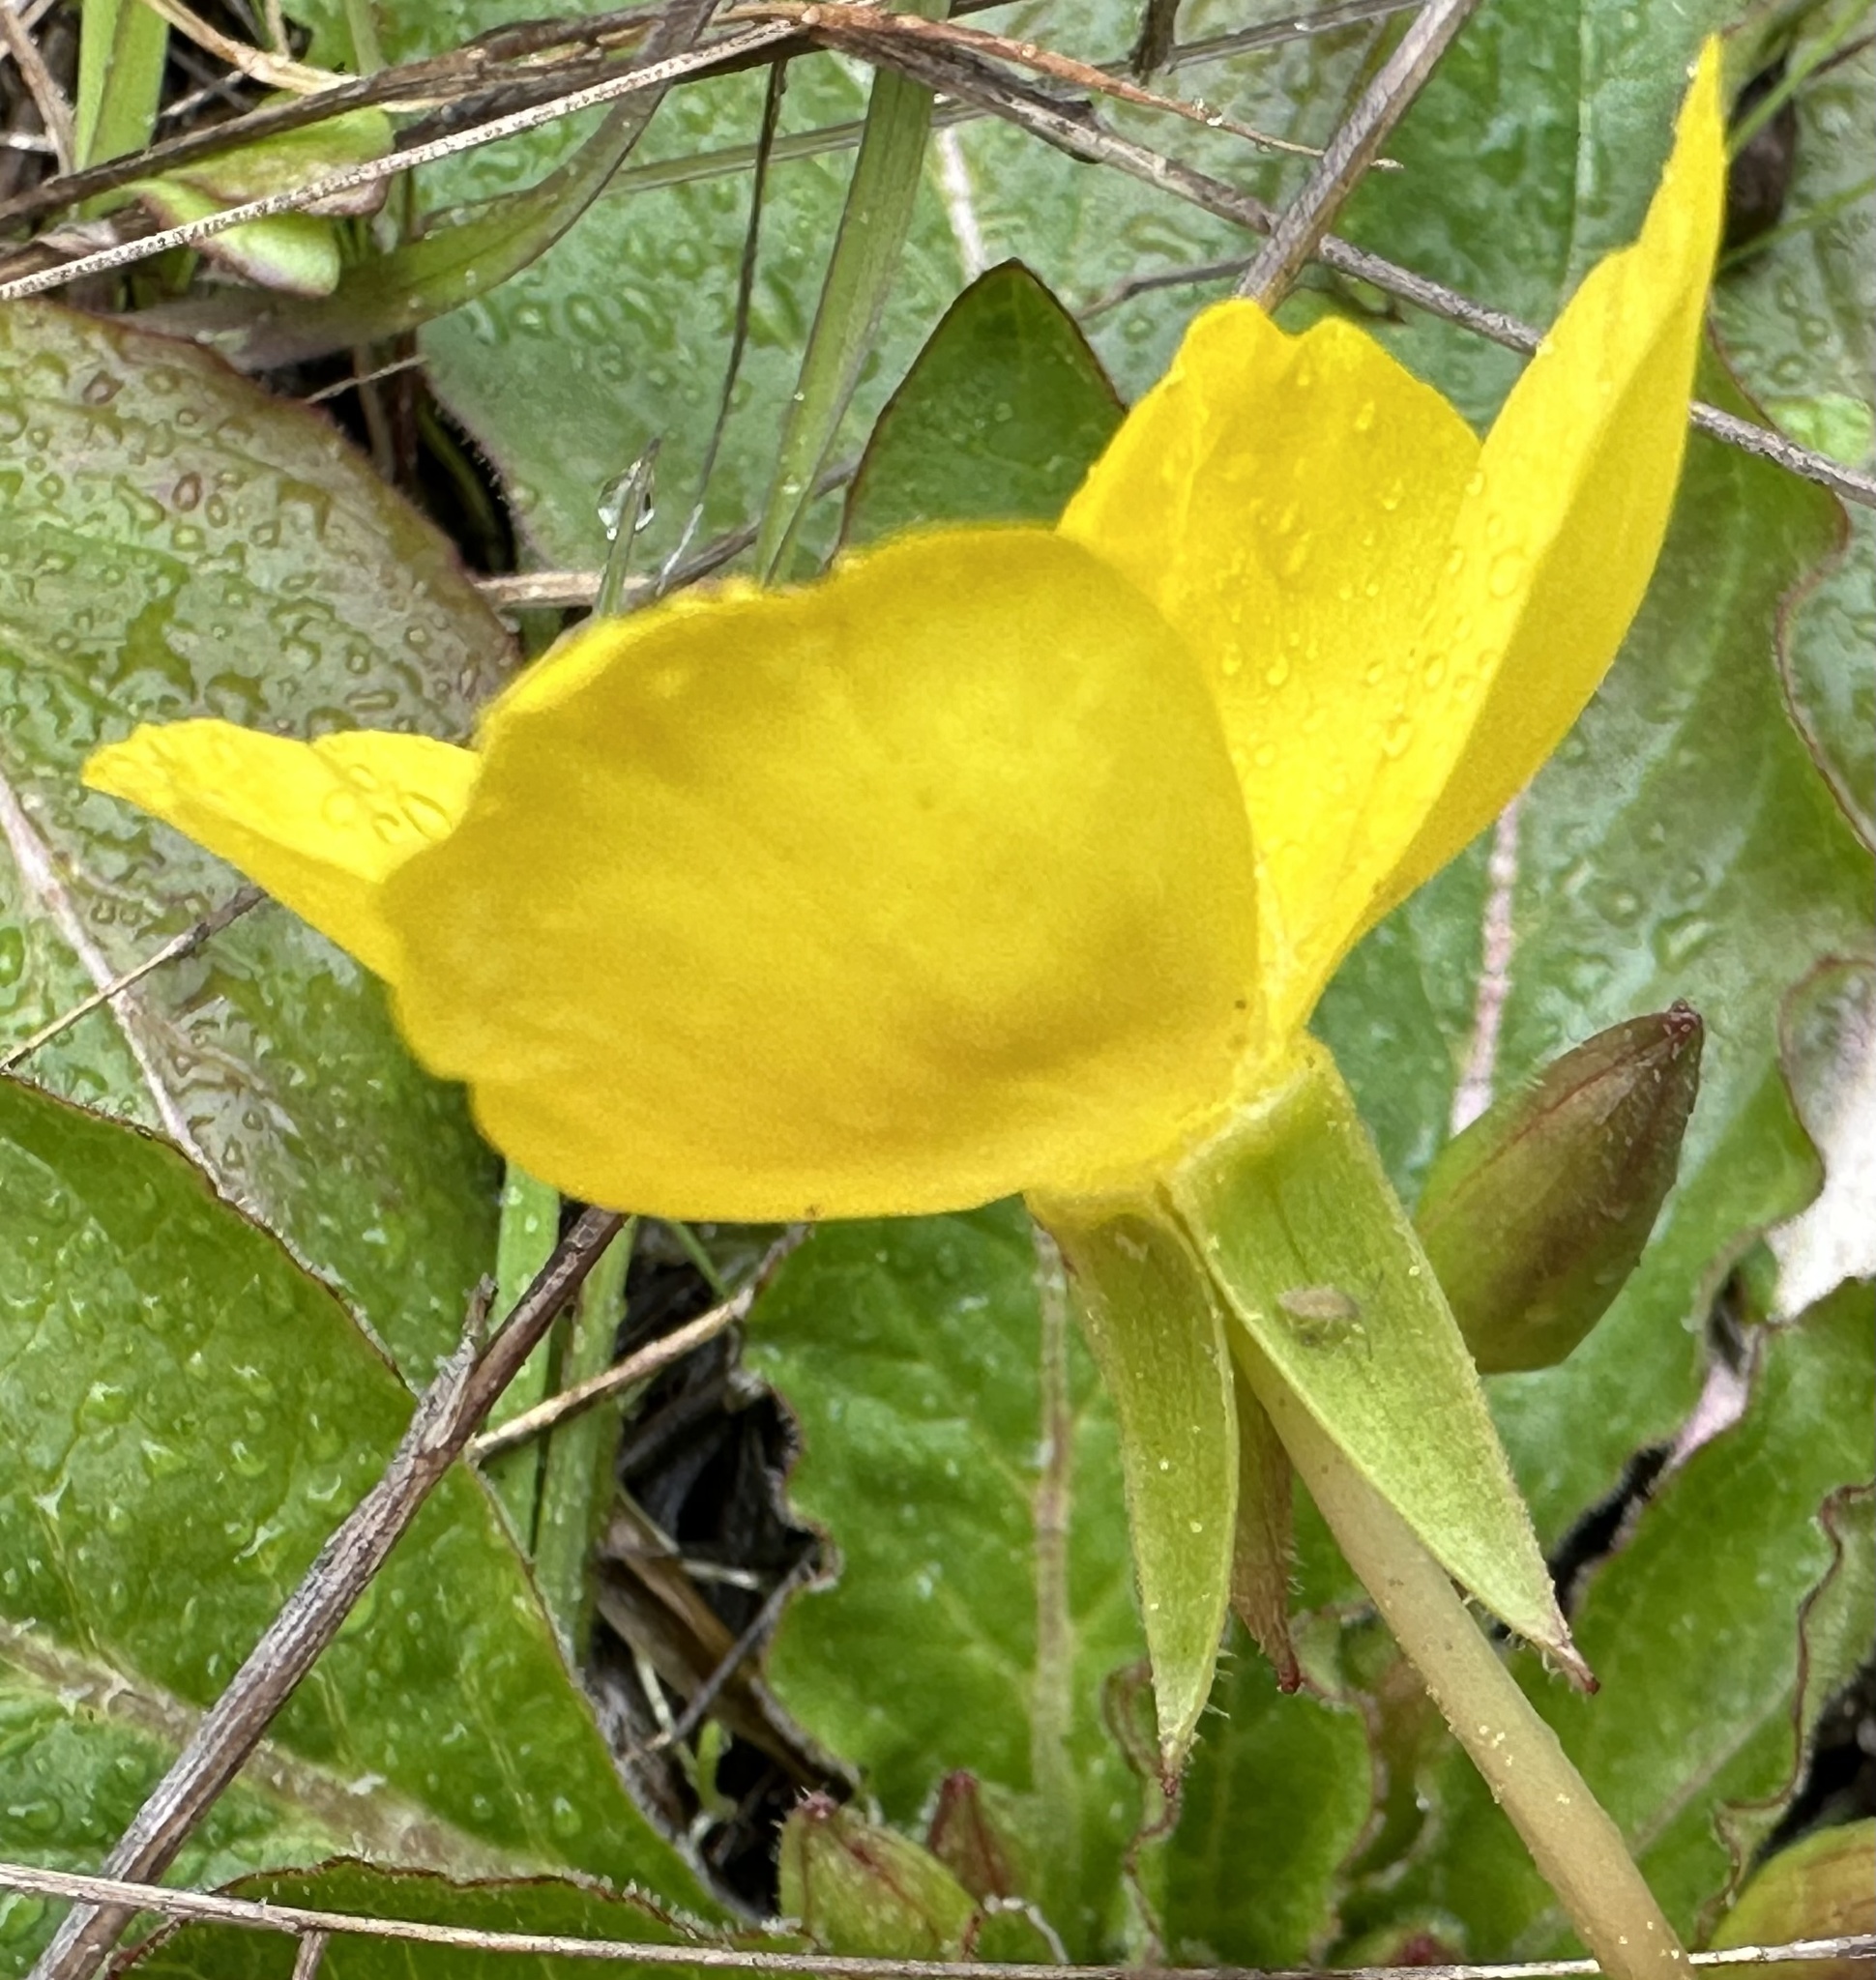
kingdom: Plantae
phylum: Tracheophyta
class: Magnoliopsida
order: Myrtales
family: Onagraceae
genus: Taraxia
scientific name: Taraxia ovata
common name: Goldeneggs
